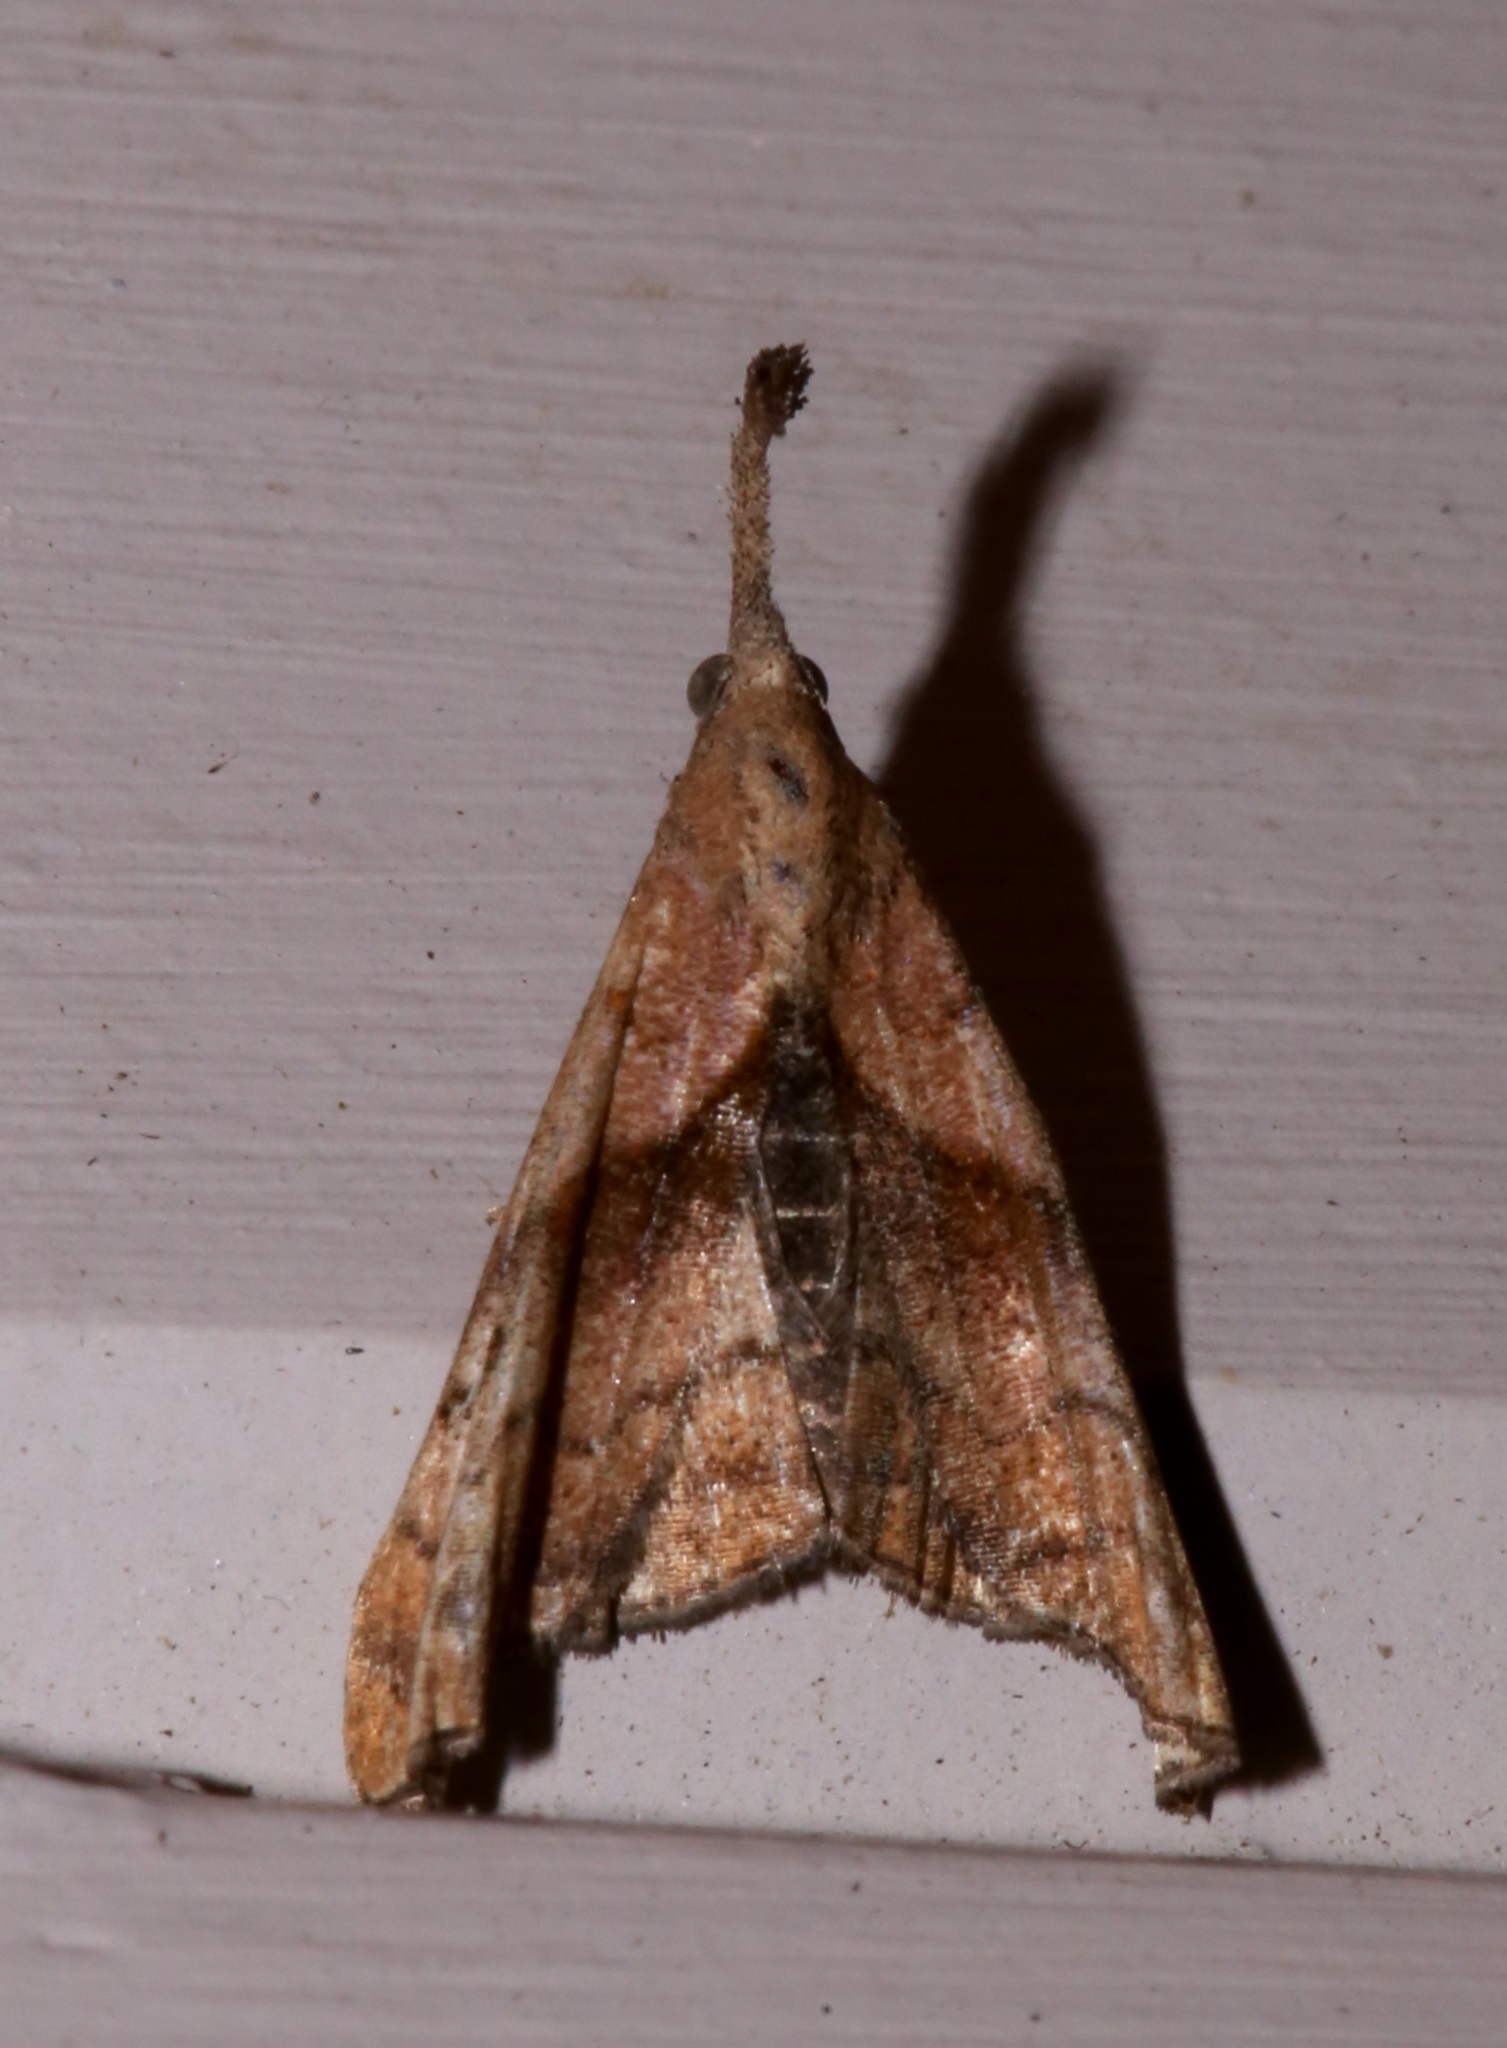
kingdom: Animalia
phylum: Arthropoda
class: Insecta
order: Lepidoptera
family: Erebidae
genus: Palthis
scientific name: Palthis angulalis
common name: Dark-spotted palthis moth
